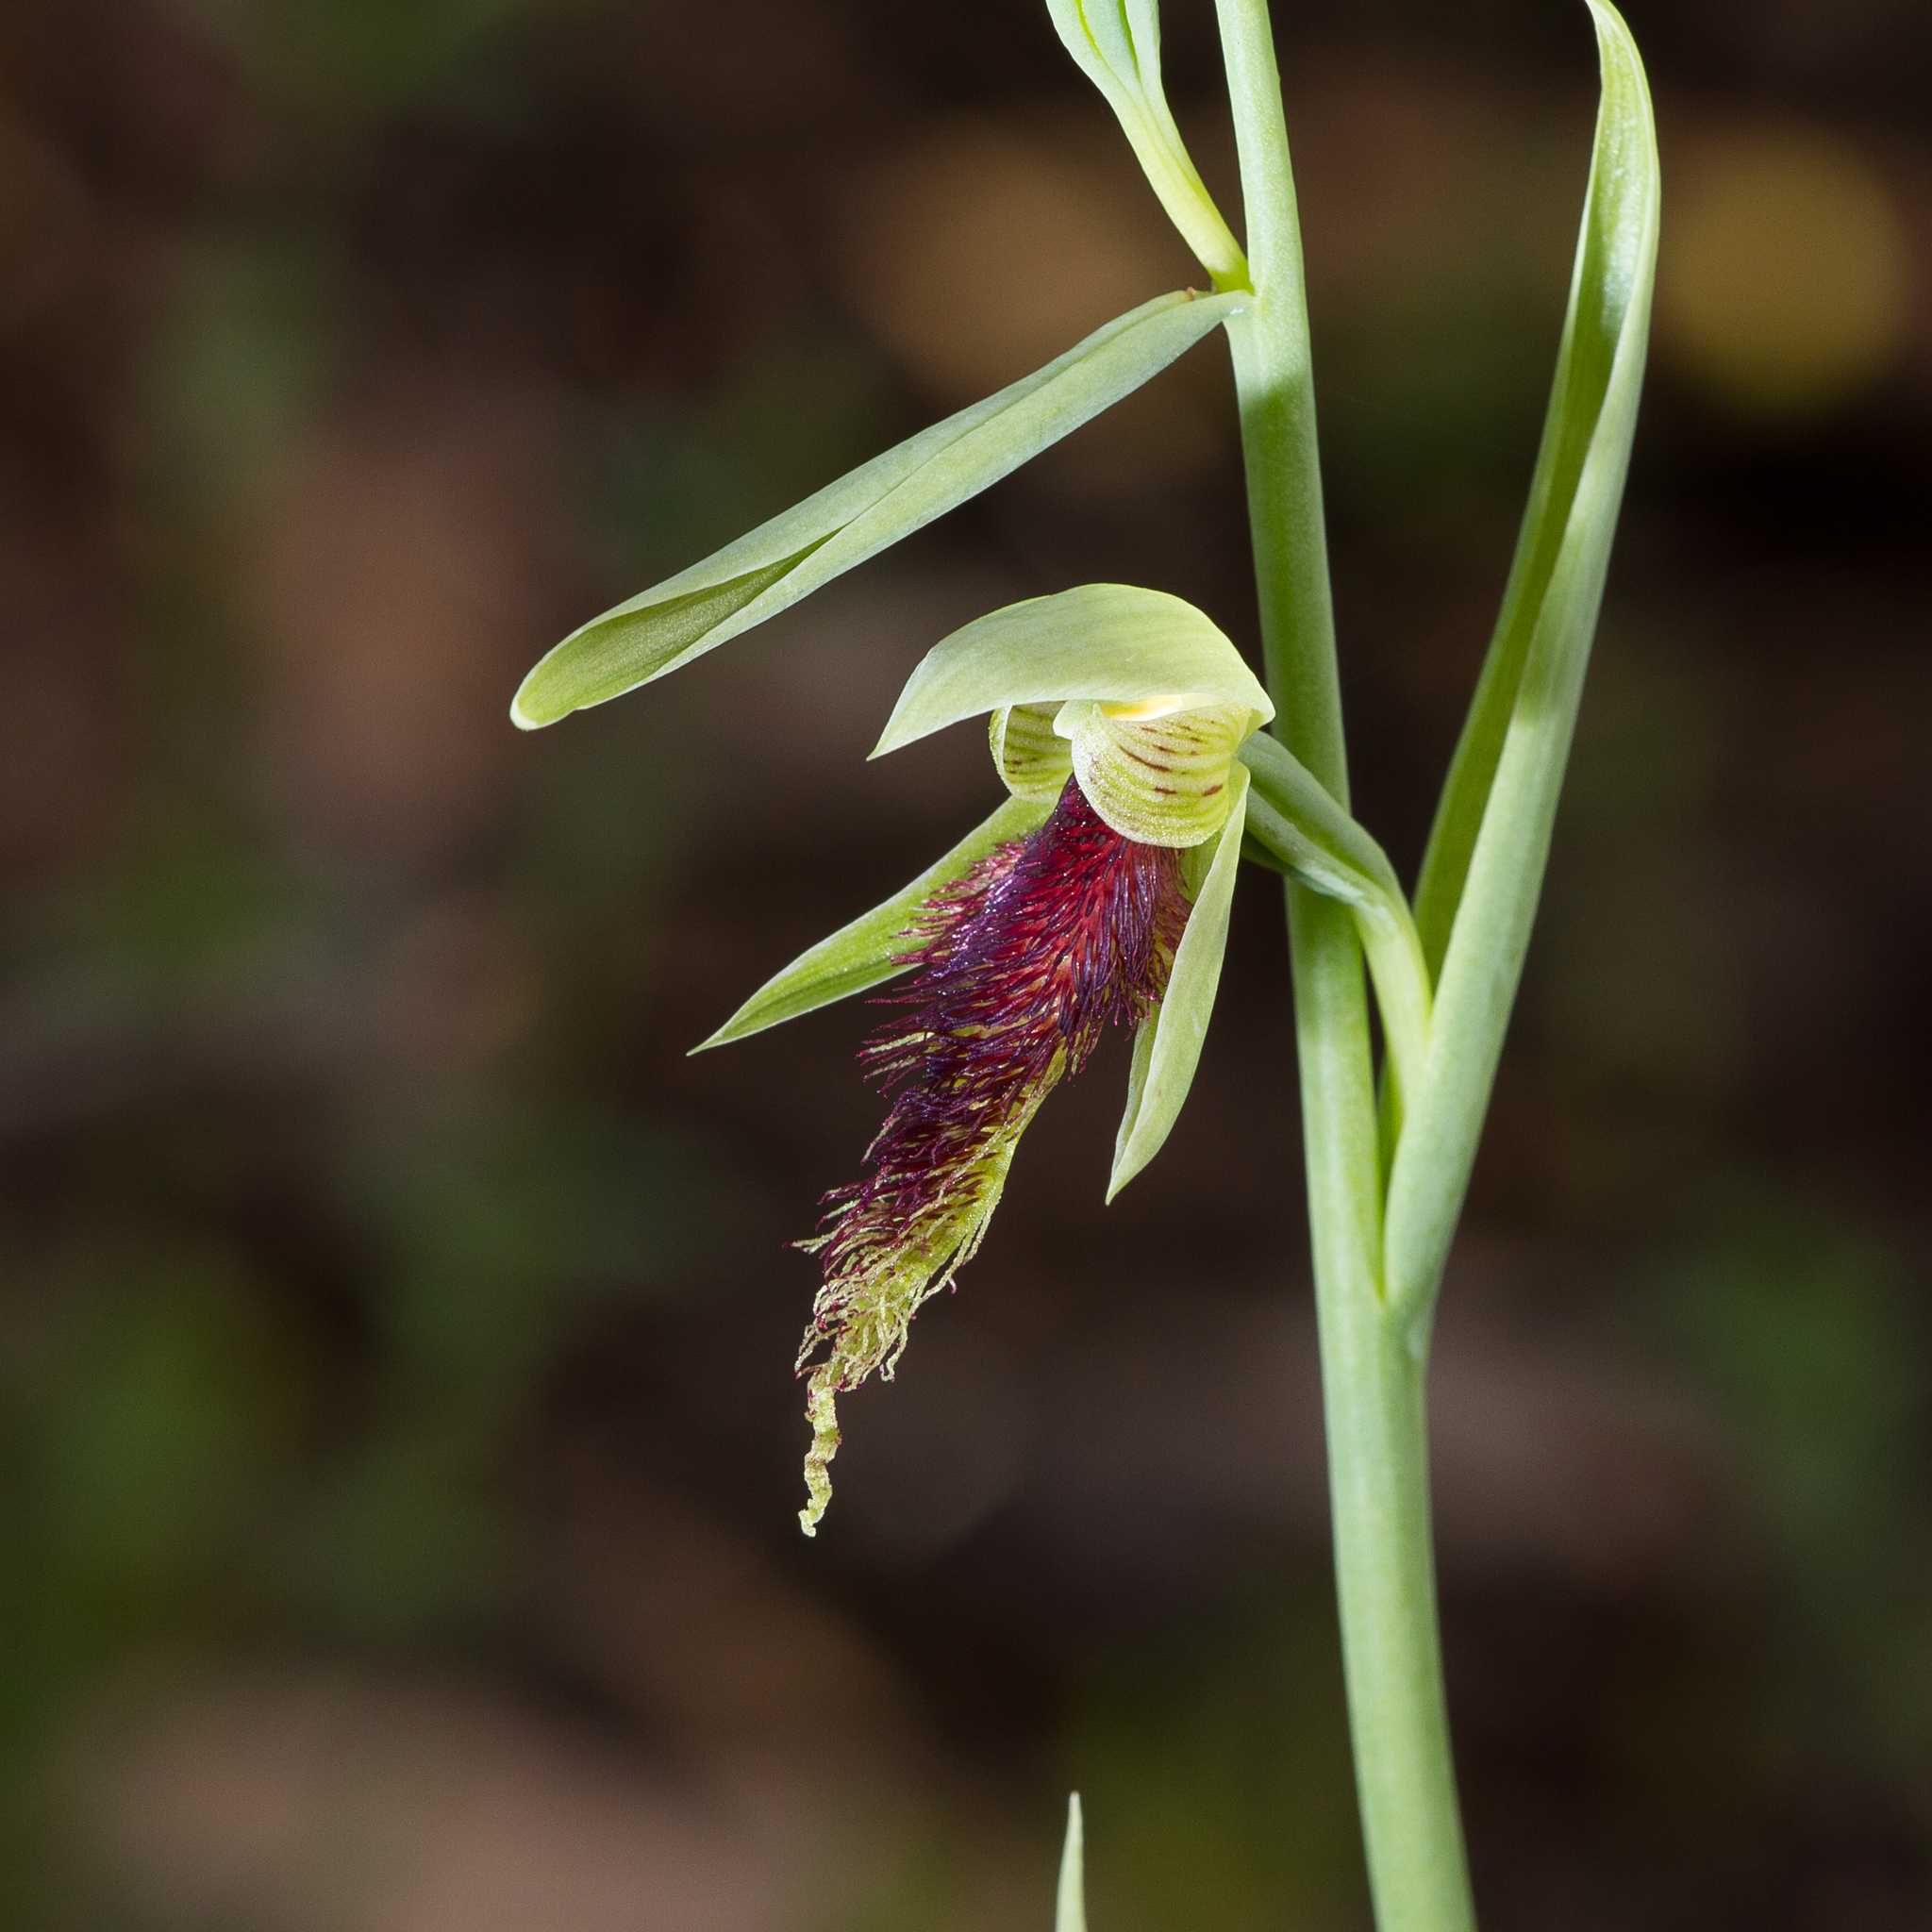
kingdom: Plantae
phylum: Tracheophyta
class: Liliopsida
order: Asparagales
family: Orchidaceae
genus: Calochilus
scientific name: Calochilus robertsonii
